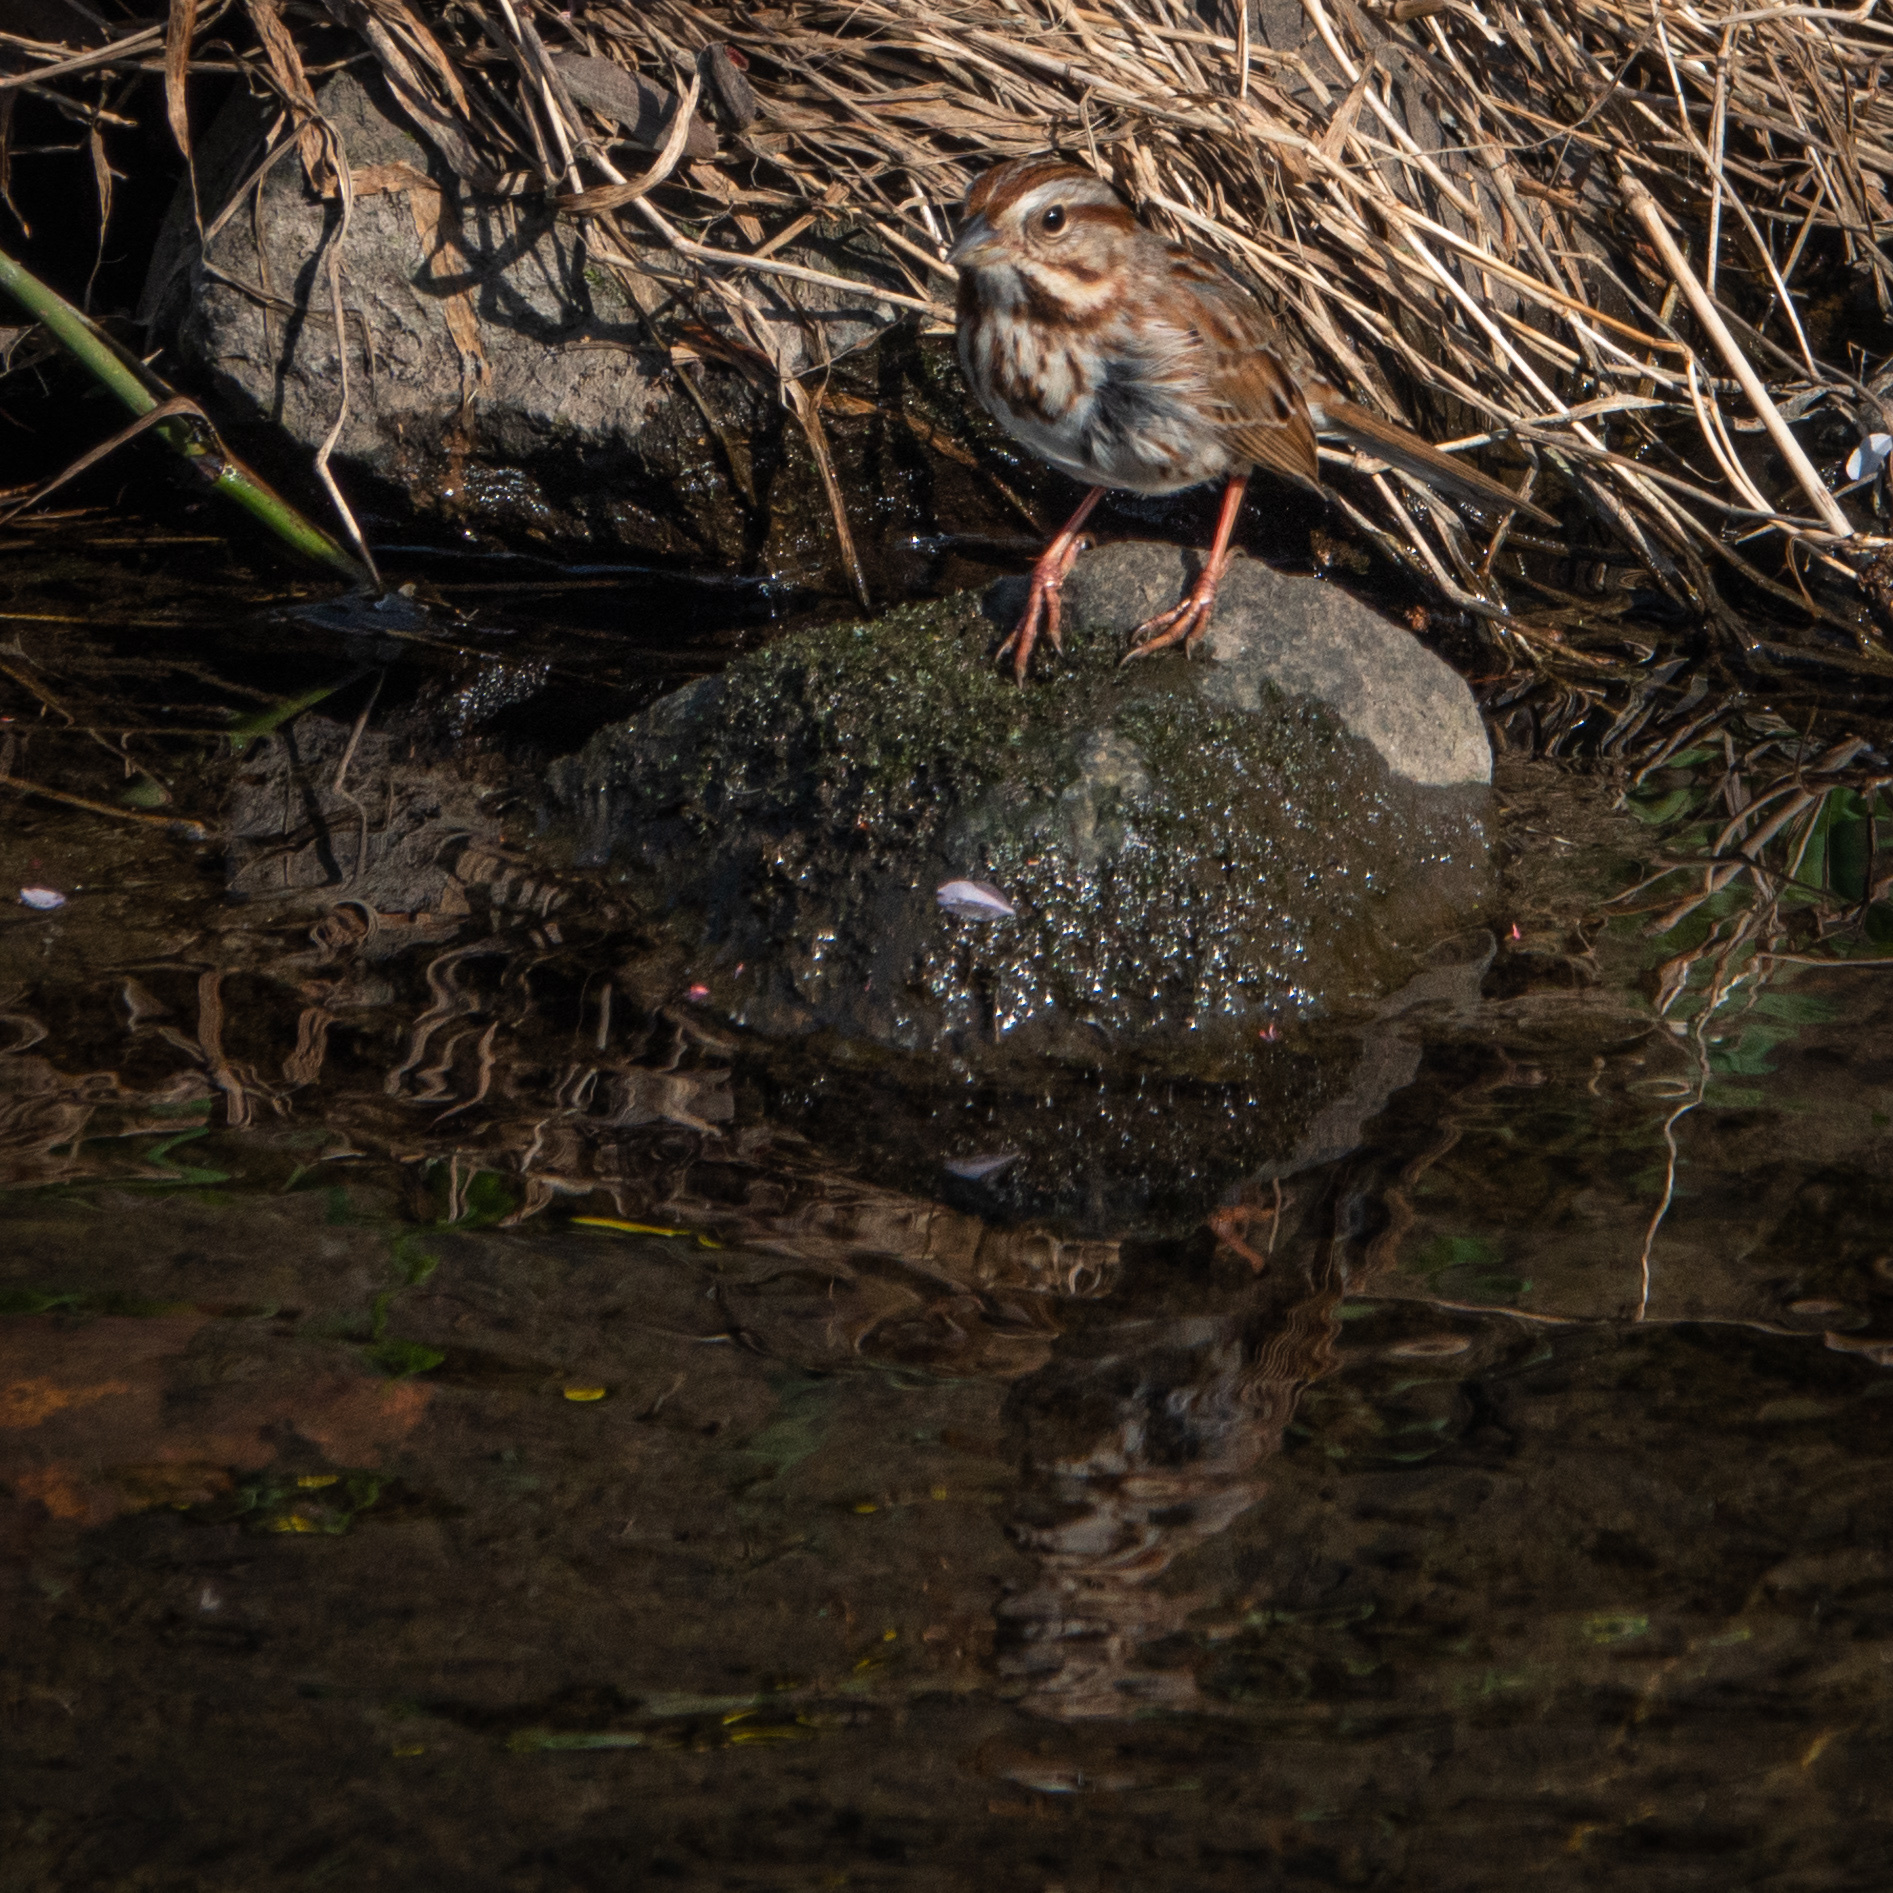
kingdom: Animalia
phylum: Chordata
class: Aves
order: Passeriformes
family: Passerellidae
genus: Melospiza
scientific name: Melospiza melodia
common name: Song sparrow
